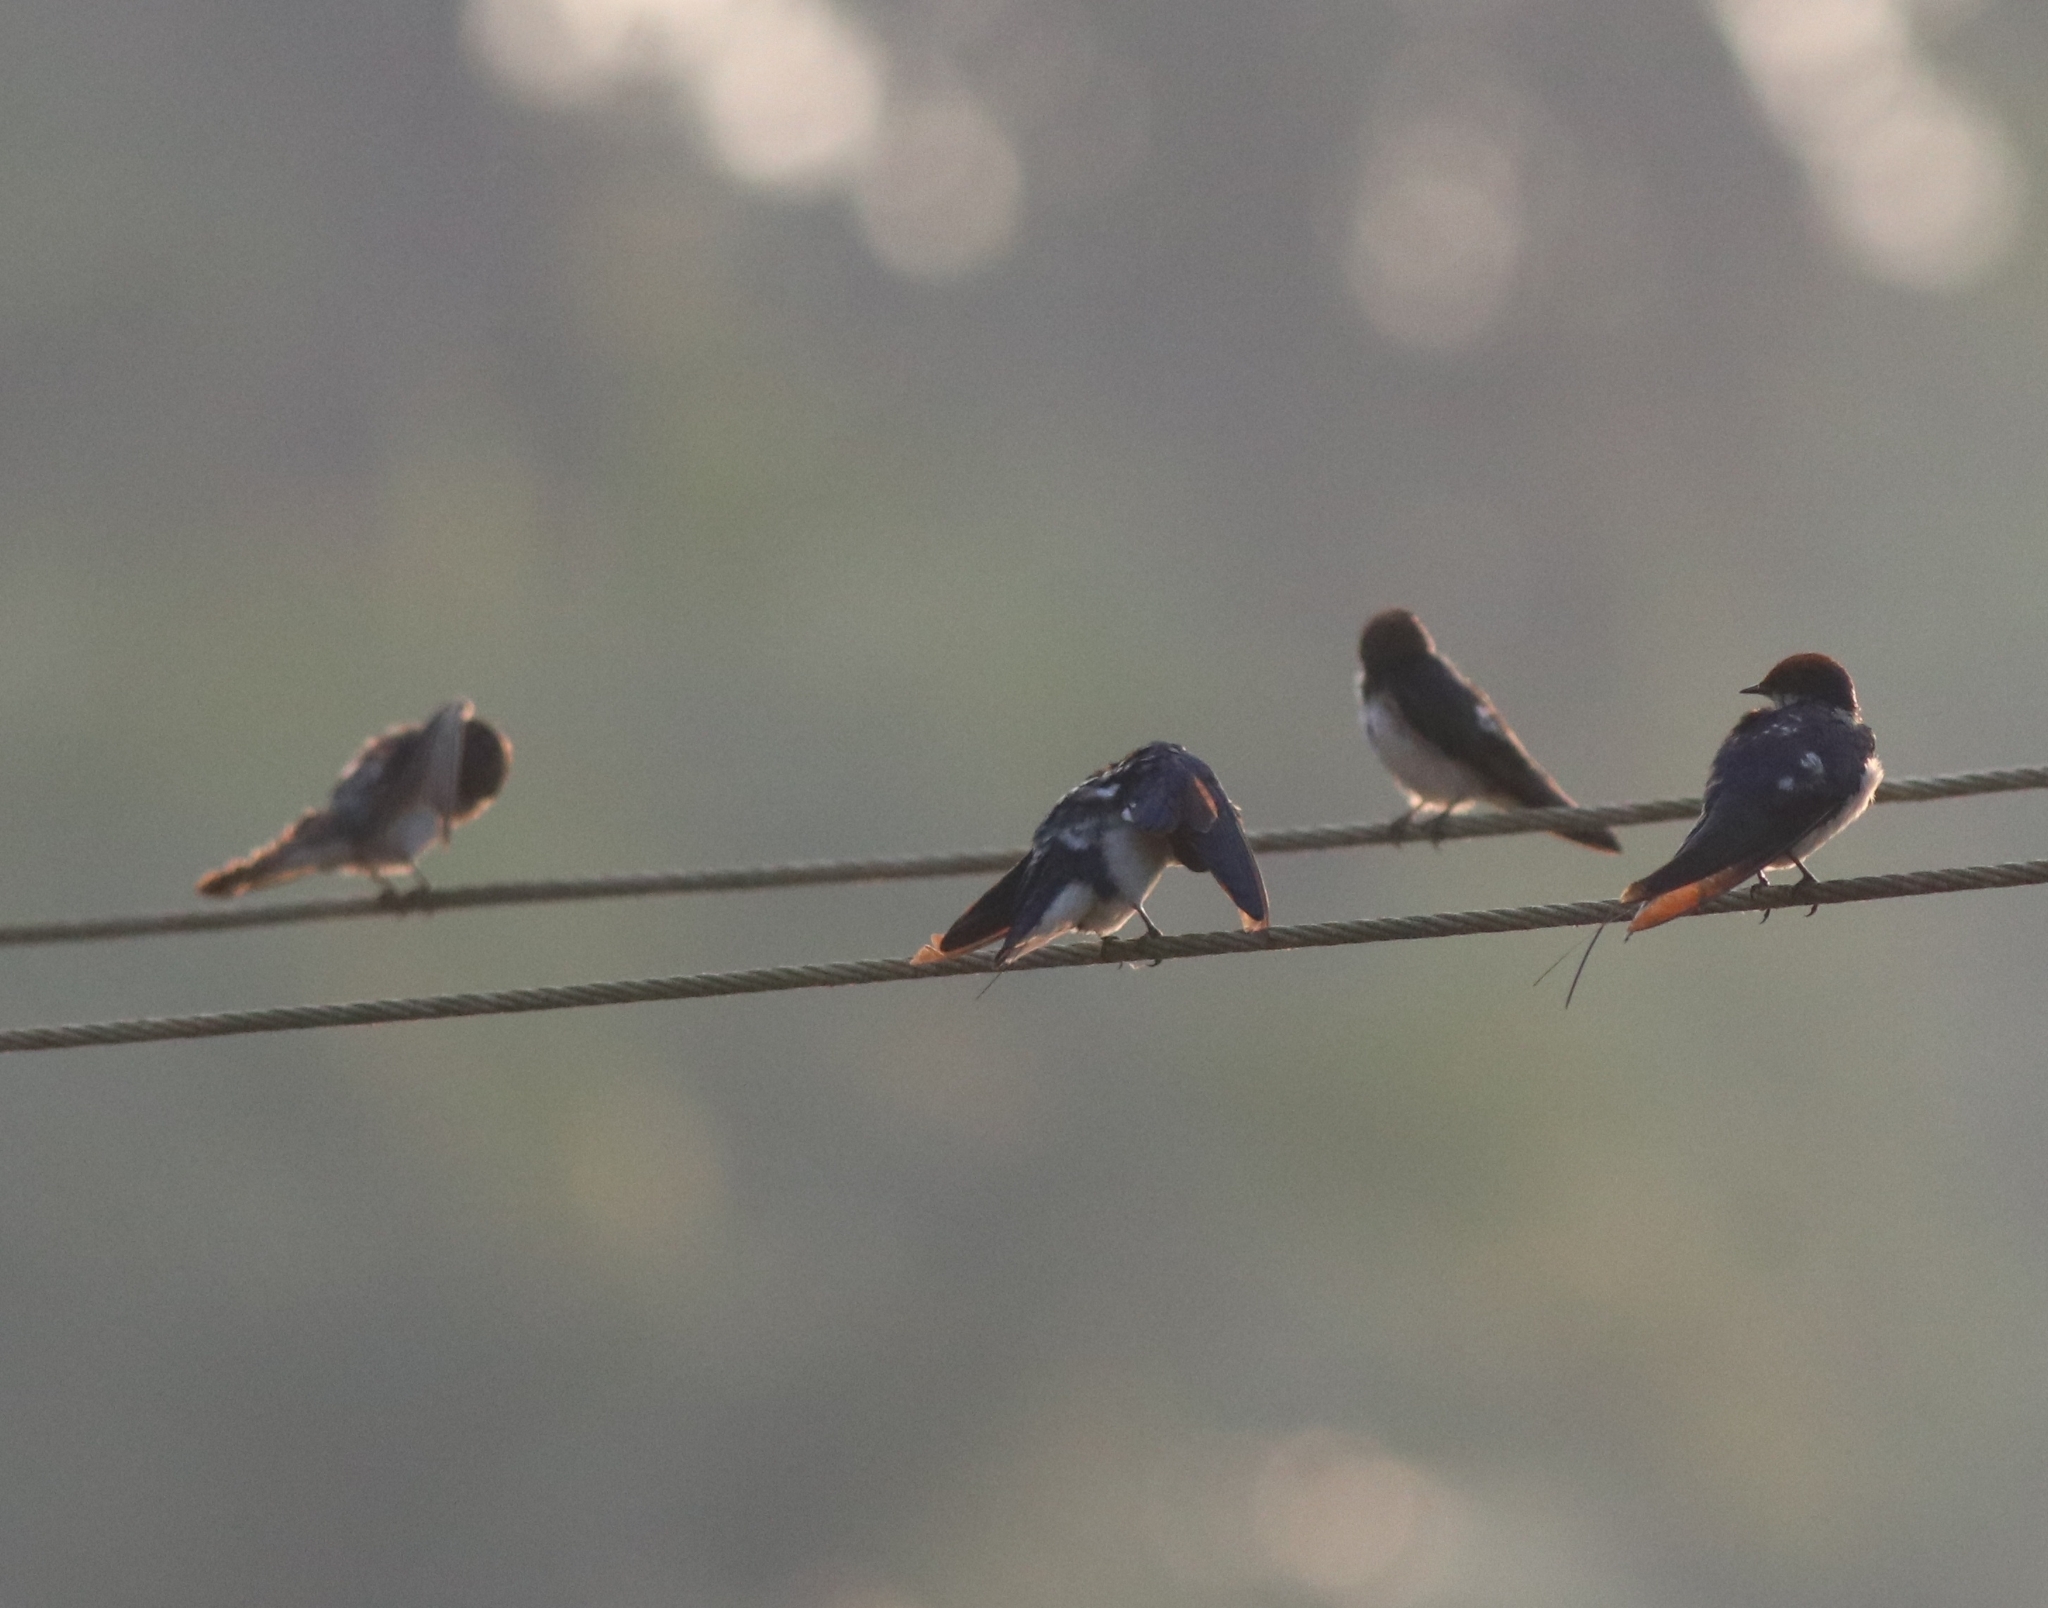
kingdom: Animalia
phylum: Chordata
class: Aves
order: Passeriformes
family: Hirundinidae
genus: Petrochelidon
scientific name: Petrochelidon fluvicola
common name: Streak-throated swallow
